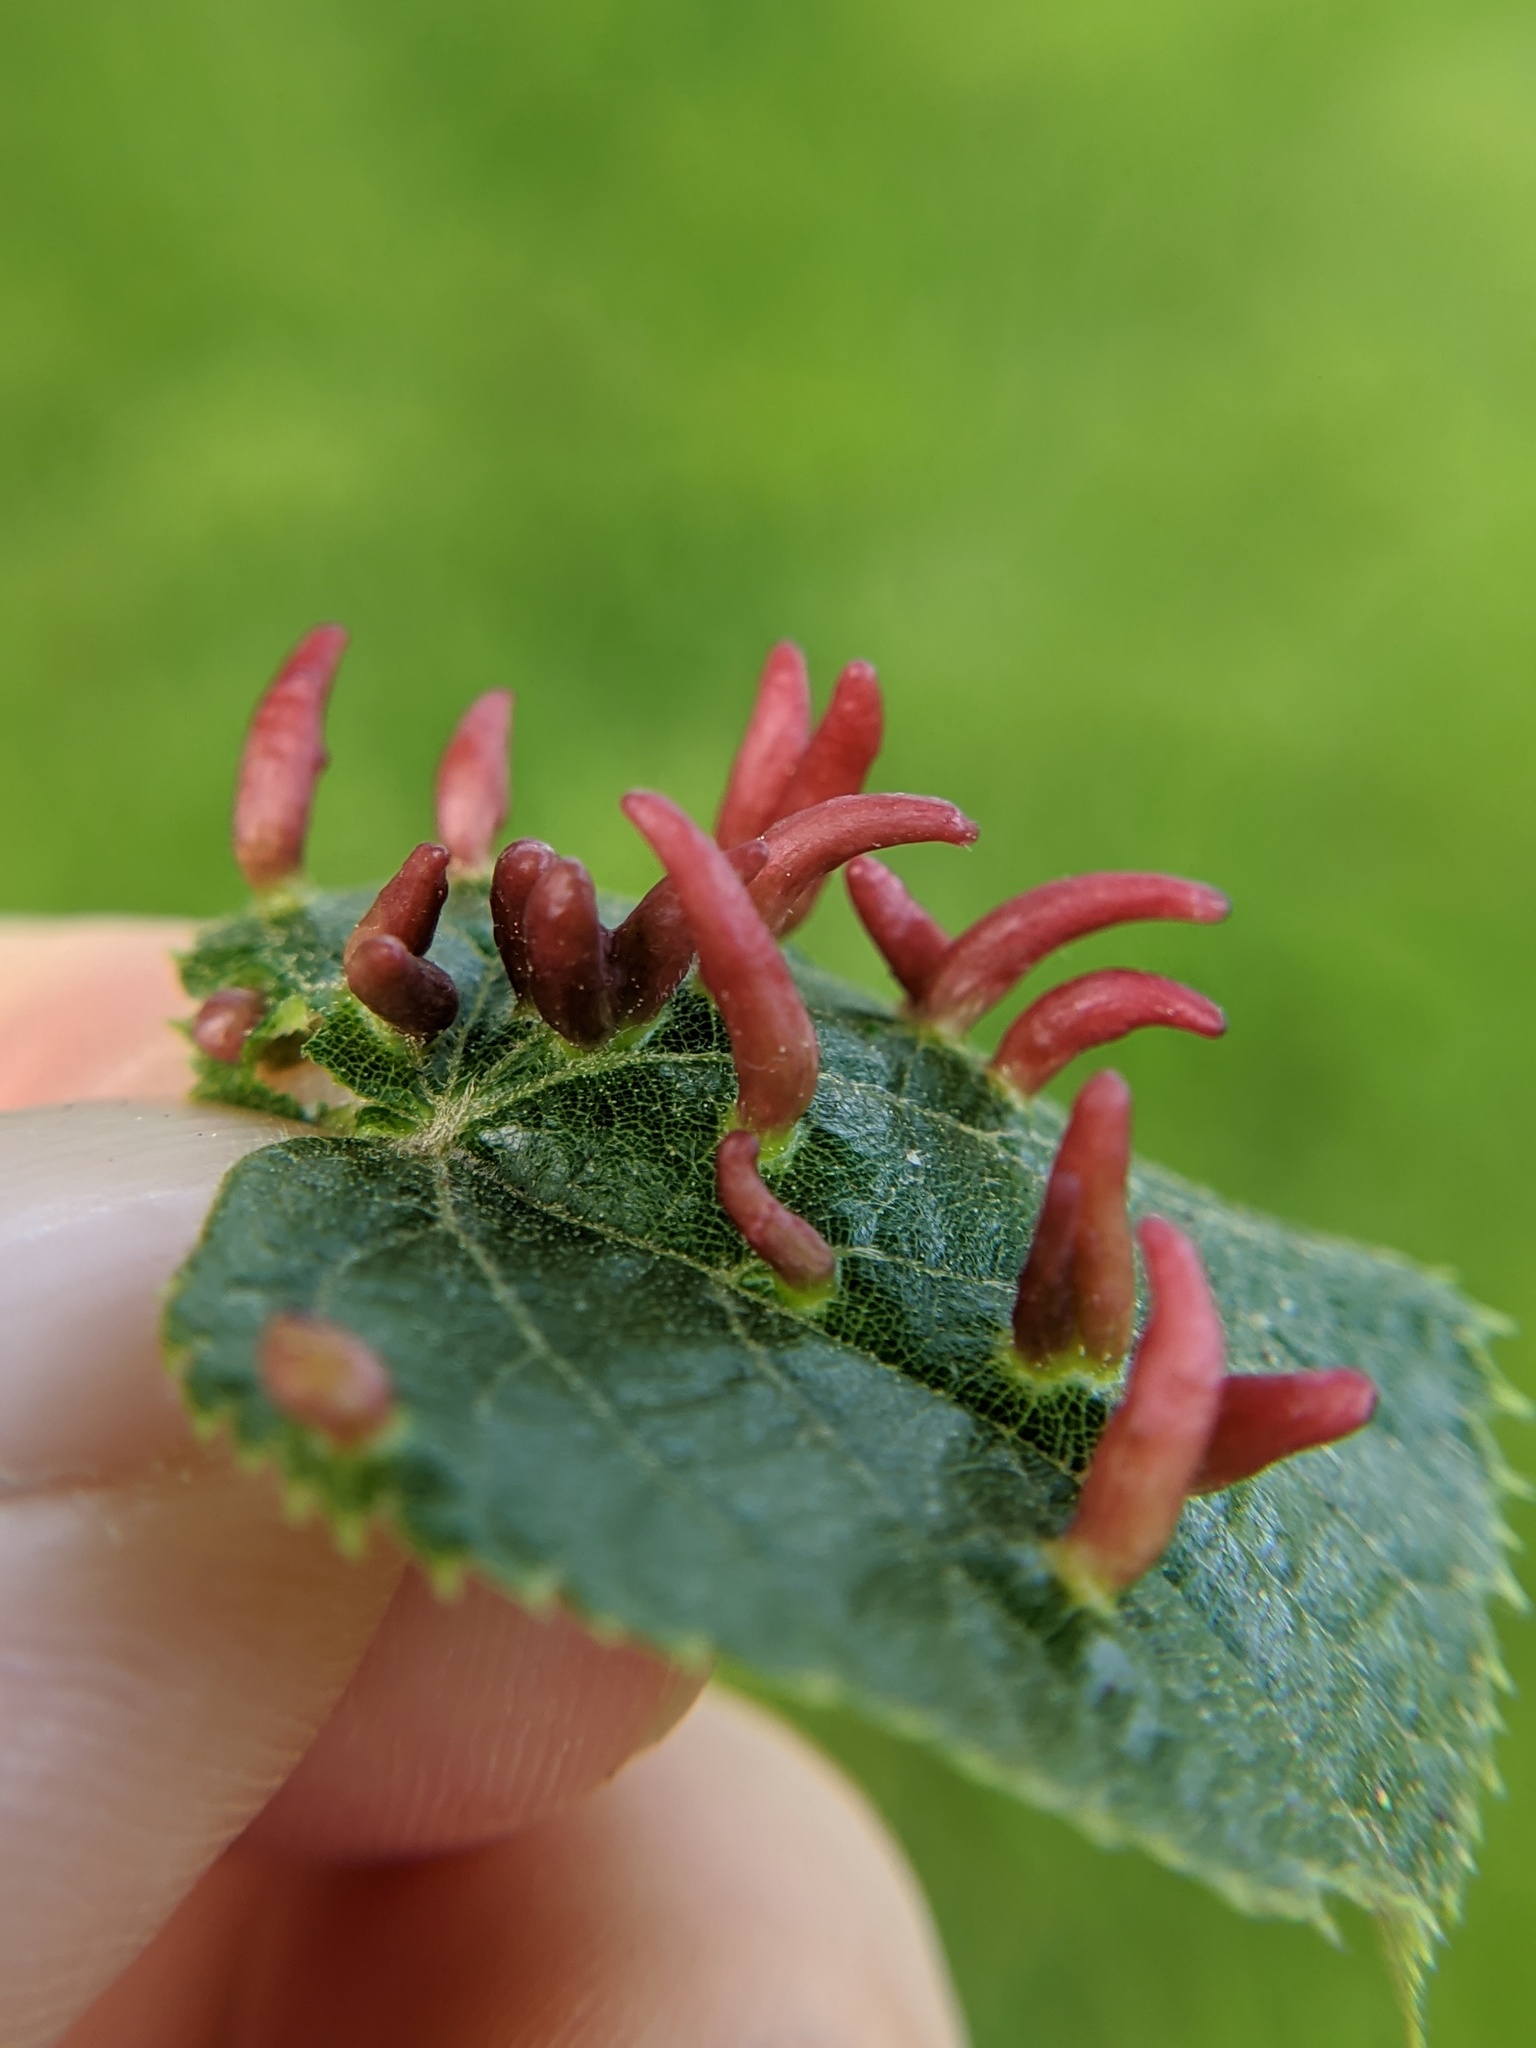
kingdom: Animalia
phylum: Arthropoda
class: Arachnida
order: Trombidiformes
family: Eriophyidae
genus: Eriophyes
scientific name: Eriophyes tiliae
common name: Red nail gall mite
